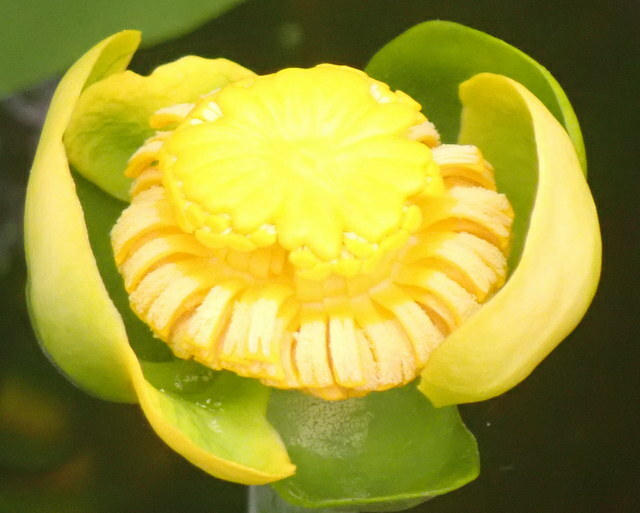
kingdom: Plantae
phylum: Tracheophyta
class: Magnoliopsida
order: Nymphaeales
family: Nymphaeaceae
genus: Nuphar
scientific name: Nuphar advena
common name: Spatter-dock
